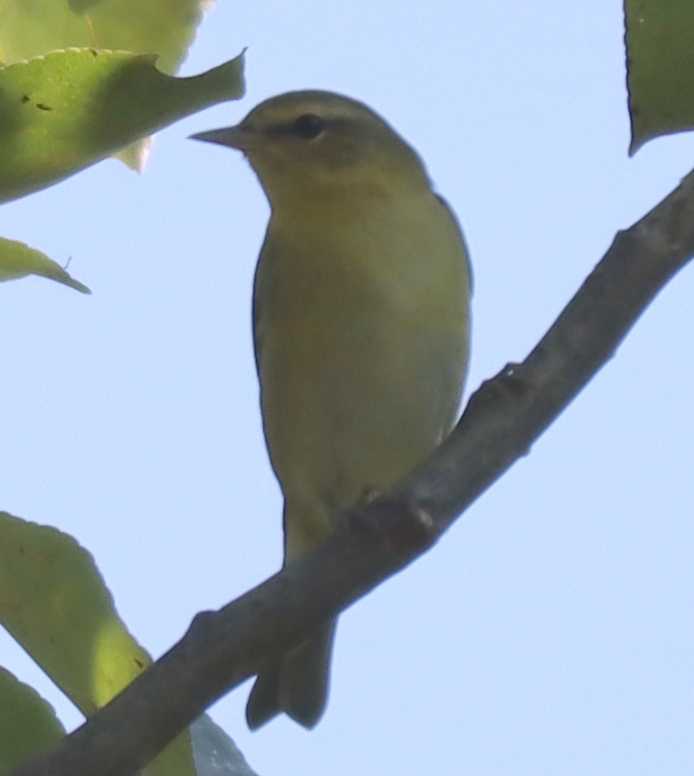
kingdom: Animalia
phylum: Chordata
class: Aves
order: Passeriformes
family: Parulidae
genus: Leiothlypis
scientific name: Leiothlypis peregrina
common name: Tennessee warbler
